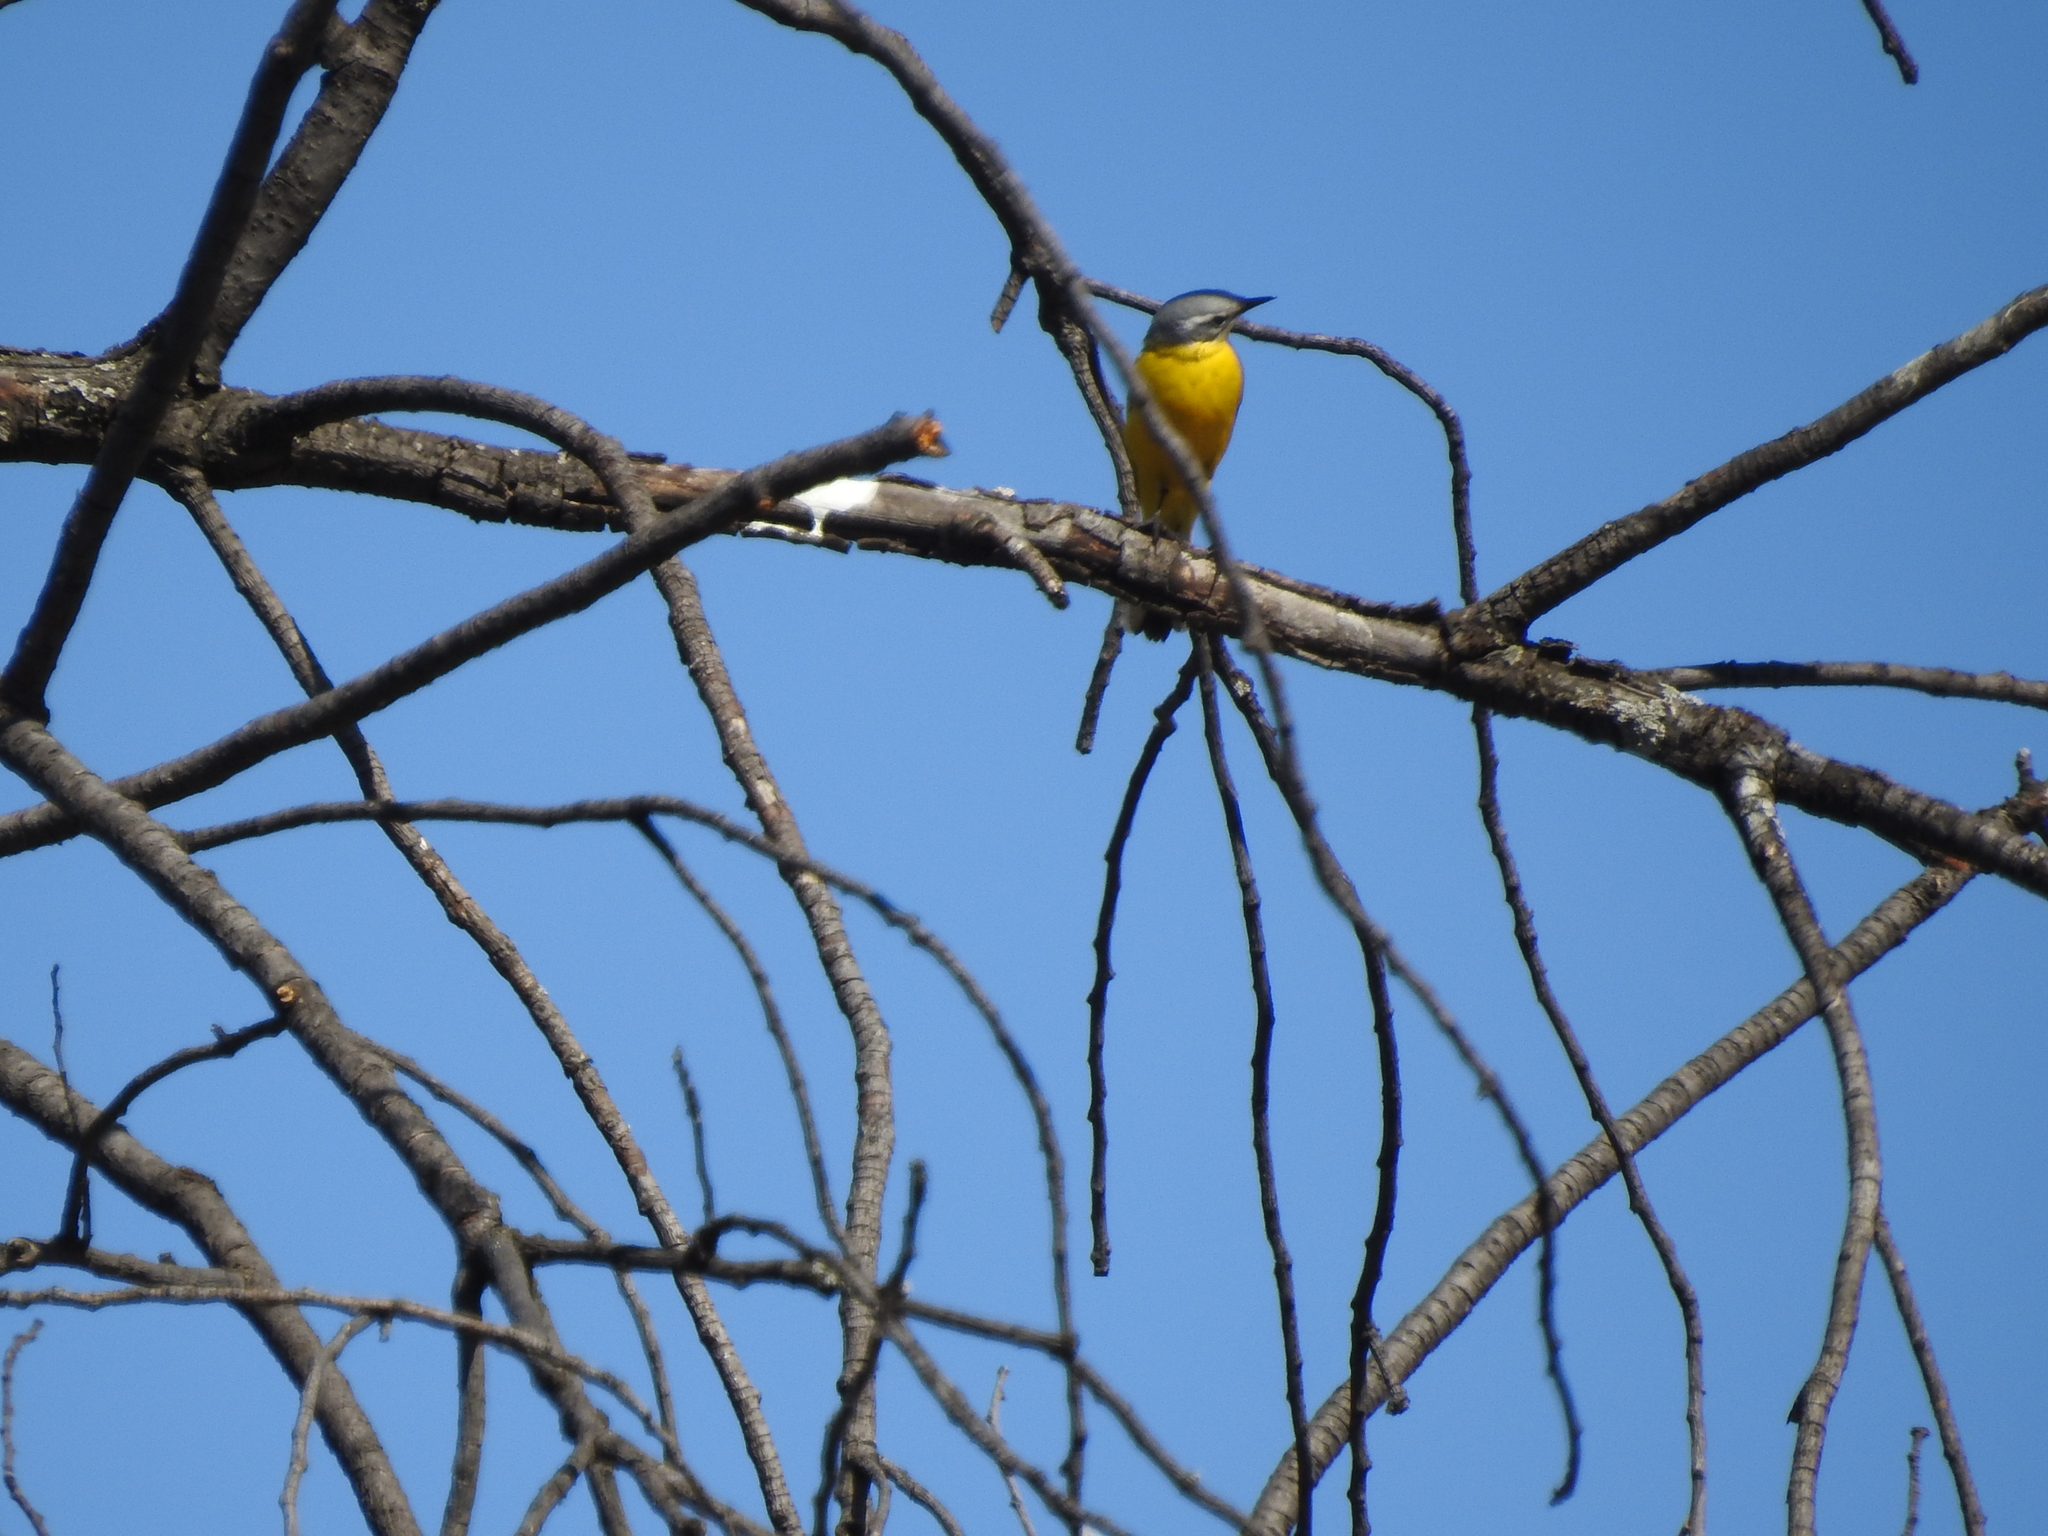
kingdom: Animalia
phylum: Chordata
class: Aves
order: Passeriformes
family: Motacillidae
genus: Motacilla
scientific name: Motacilla flava
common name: Western yellow wagtail
